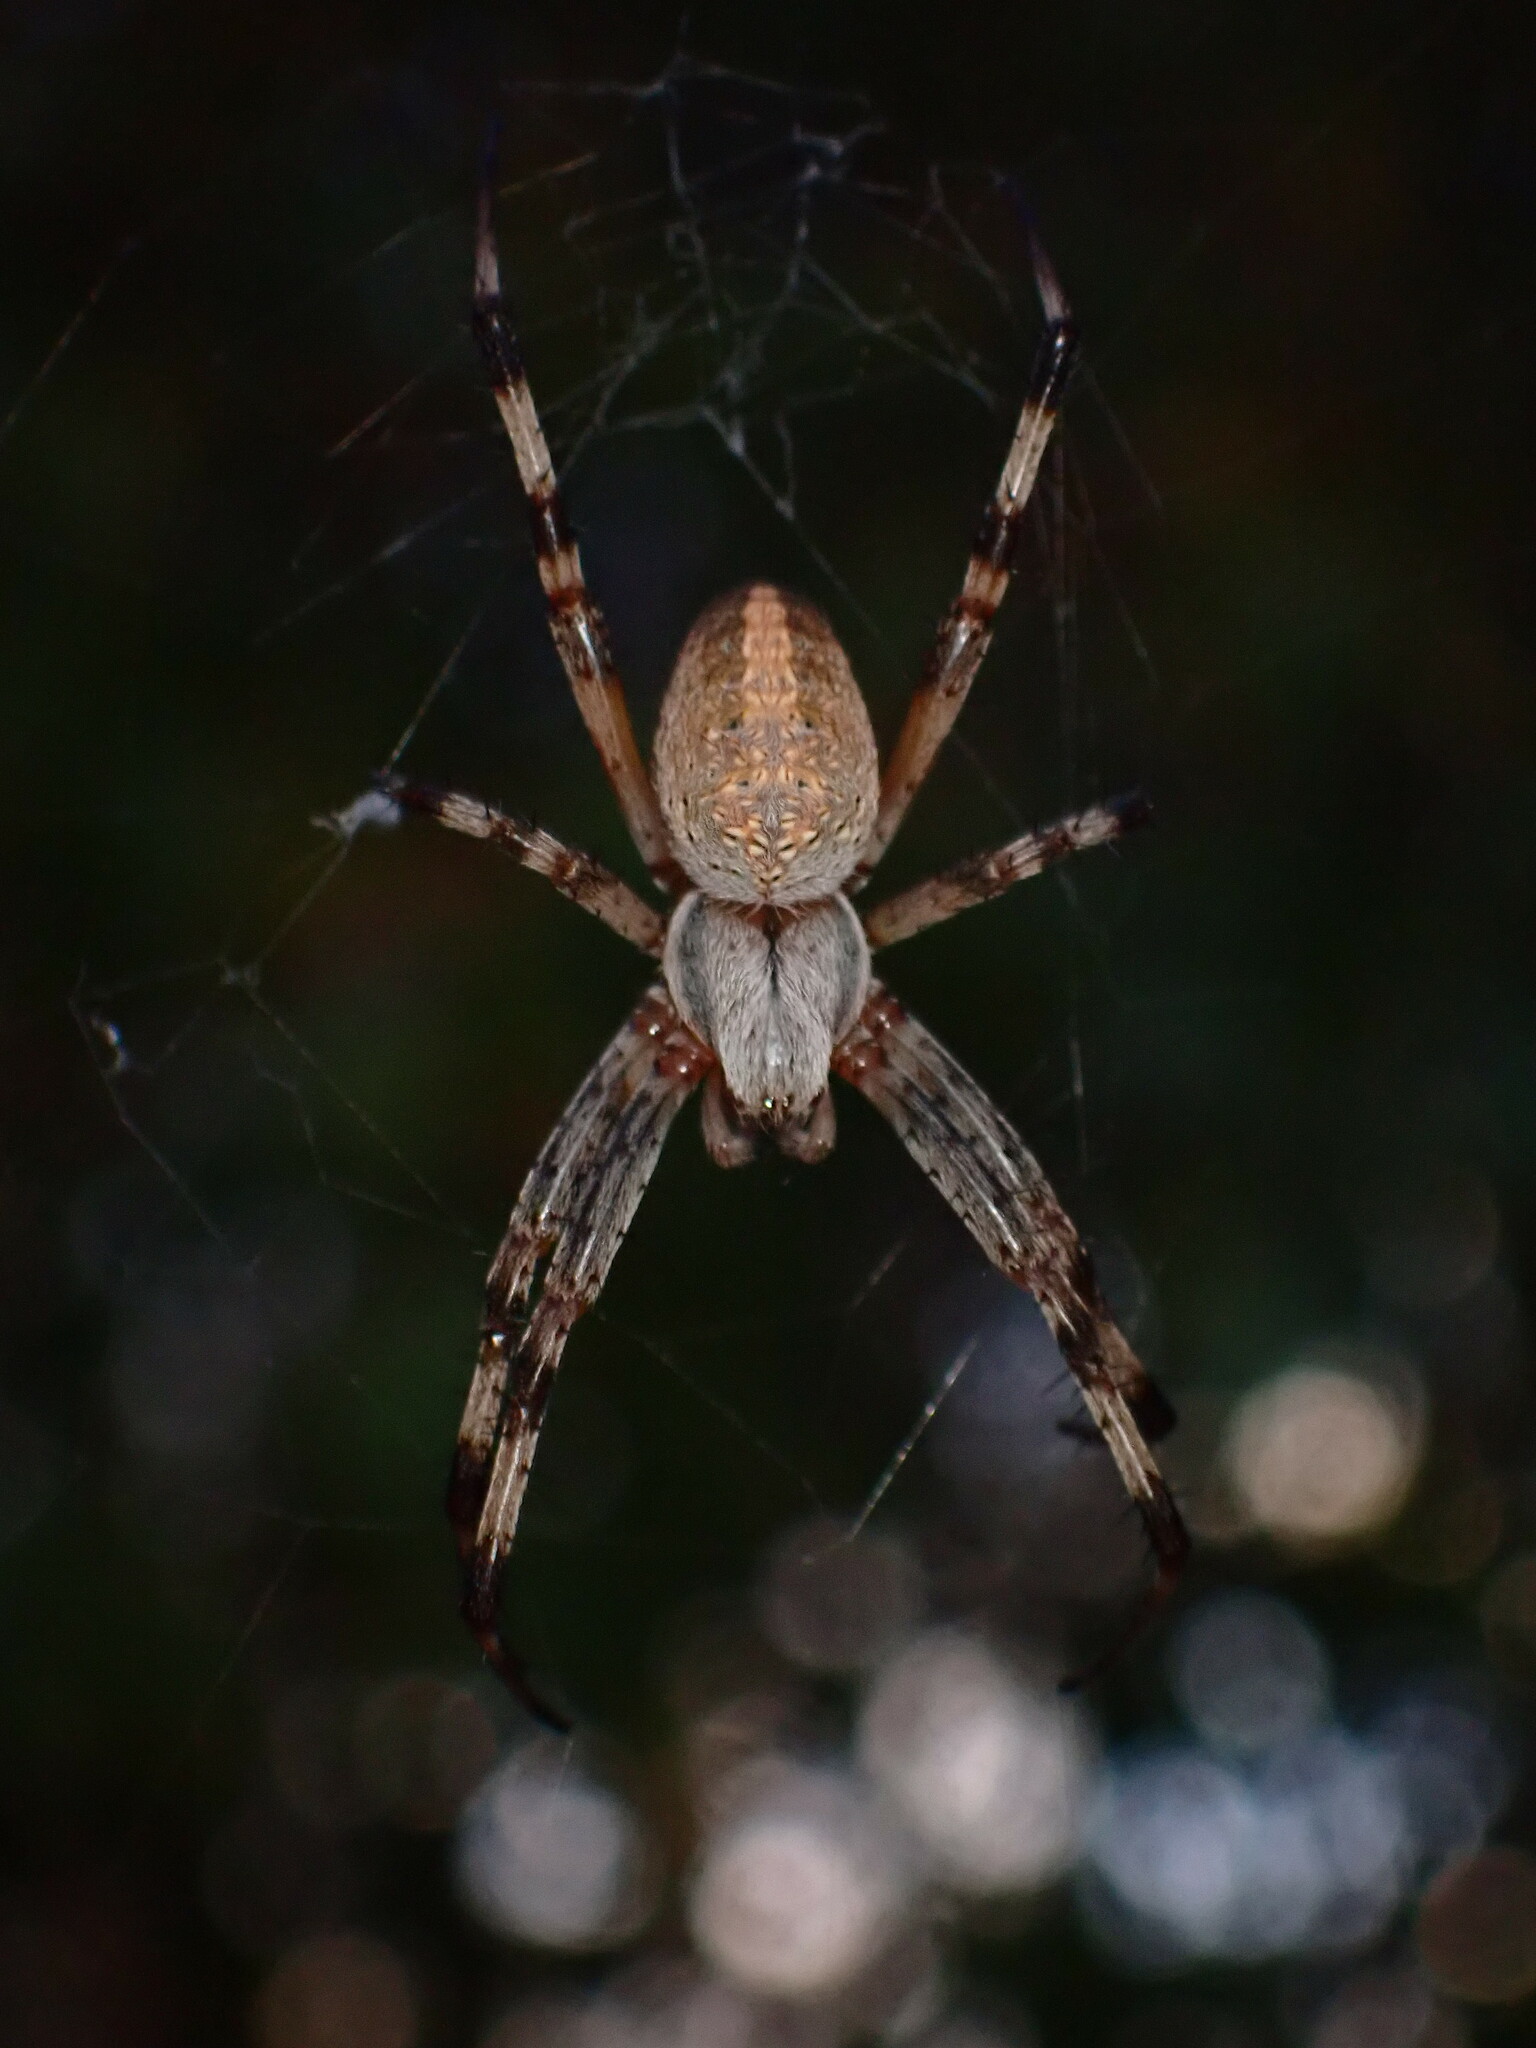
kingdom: Animalia
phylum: Arthropoda
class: Arachnida
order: Araneae
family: Araneidae
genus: Neoscona
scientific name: Neoscona oaxacensis
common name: Orb weavers
